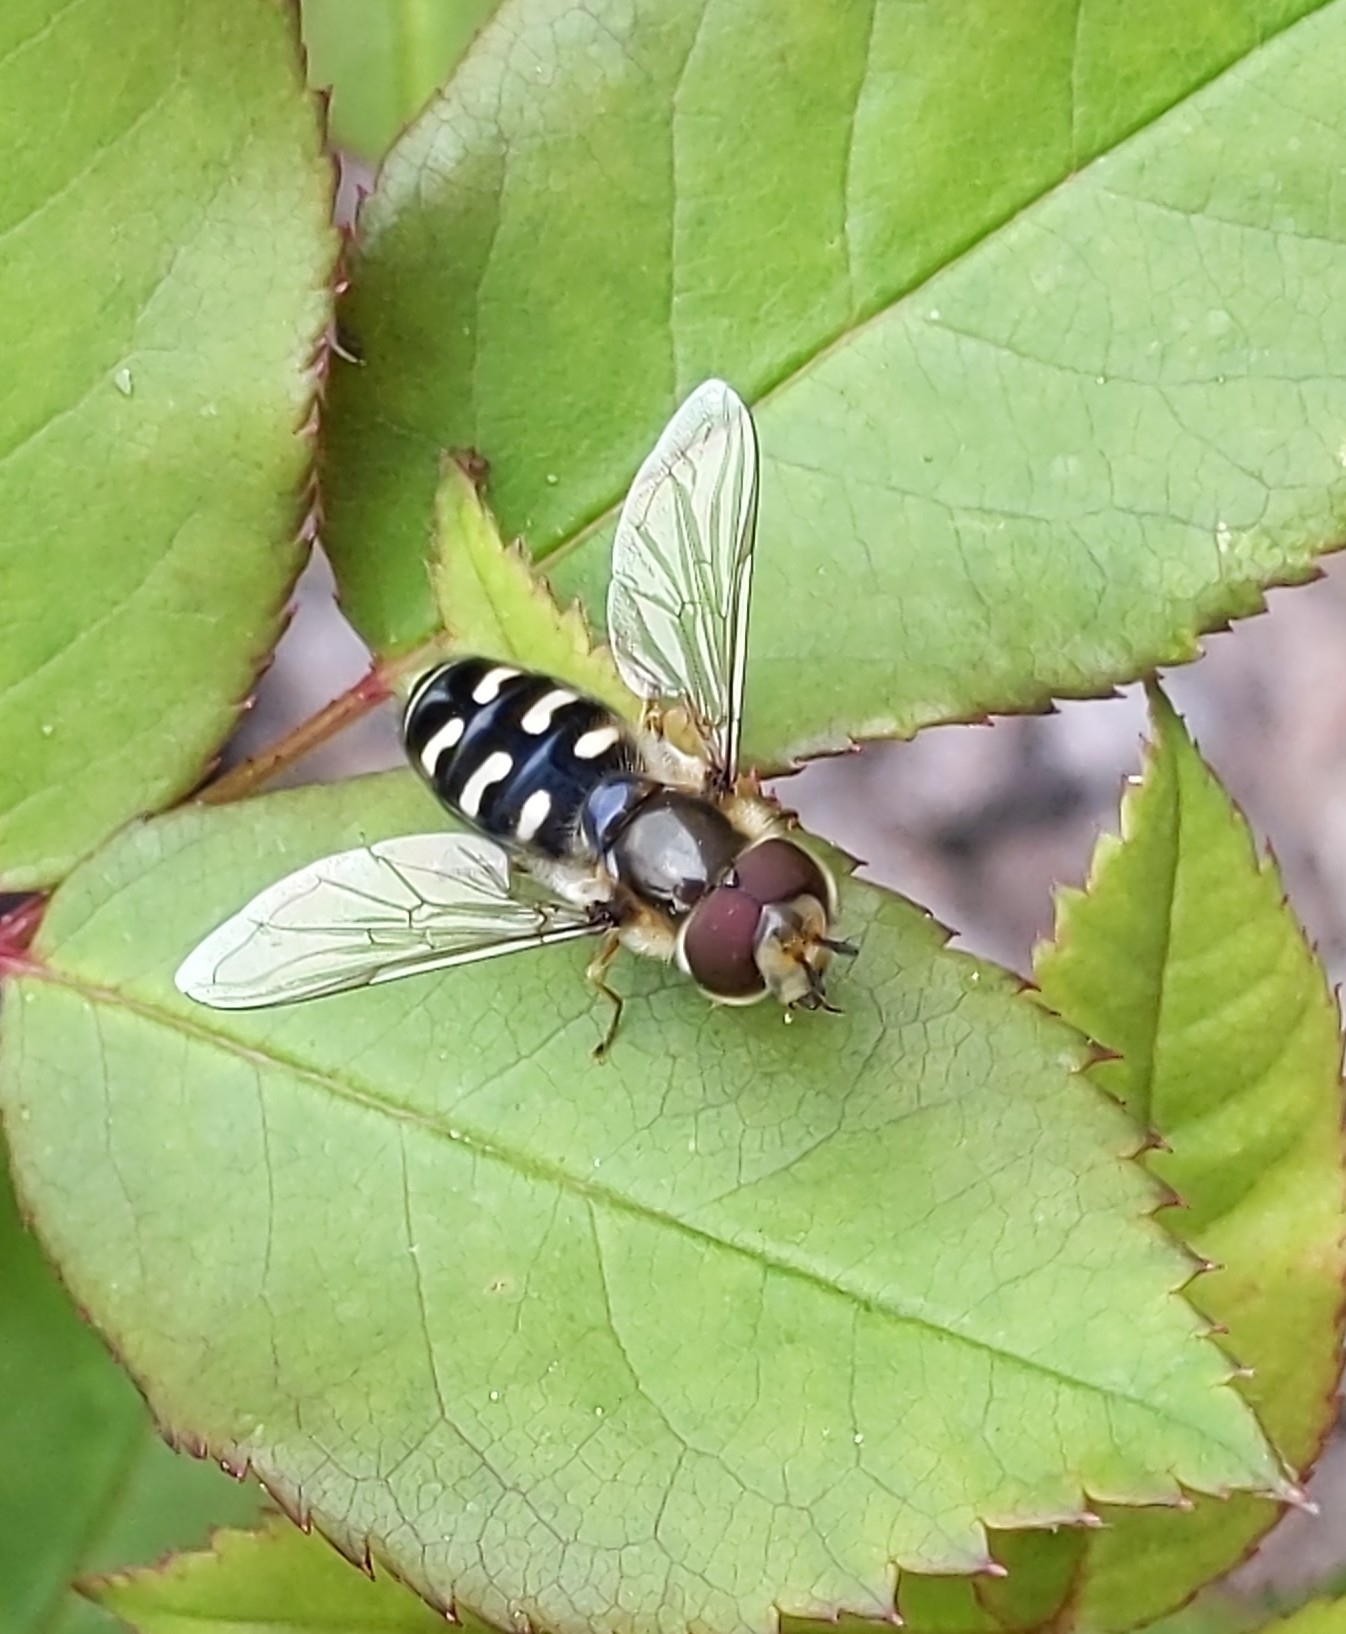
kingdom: Animalia
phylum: Arthropoda
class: Insecta
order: Diptera
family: Syrphidae
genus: Scaeva
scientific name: Scaeva pyrastri
